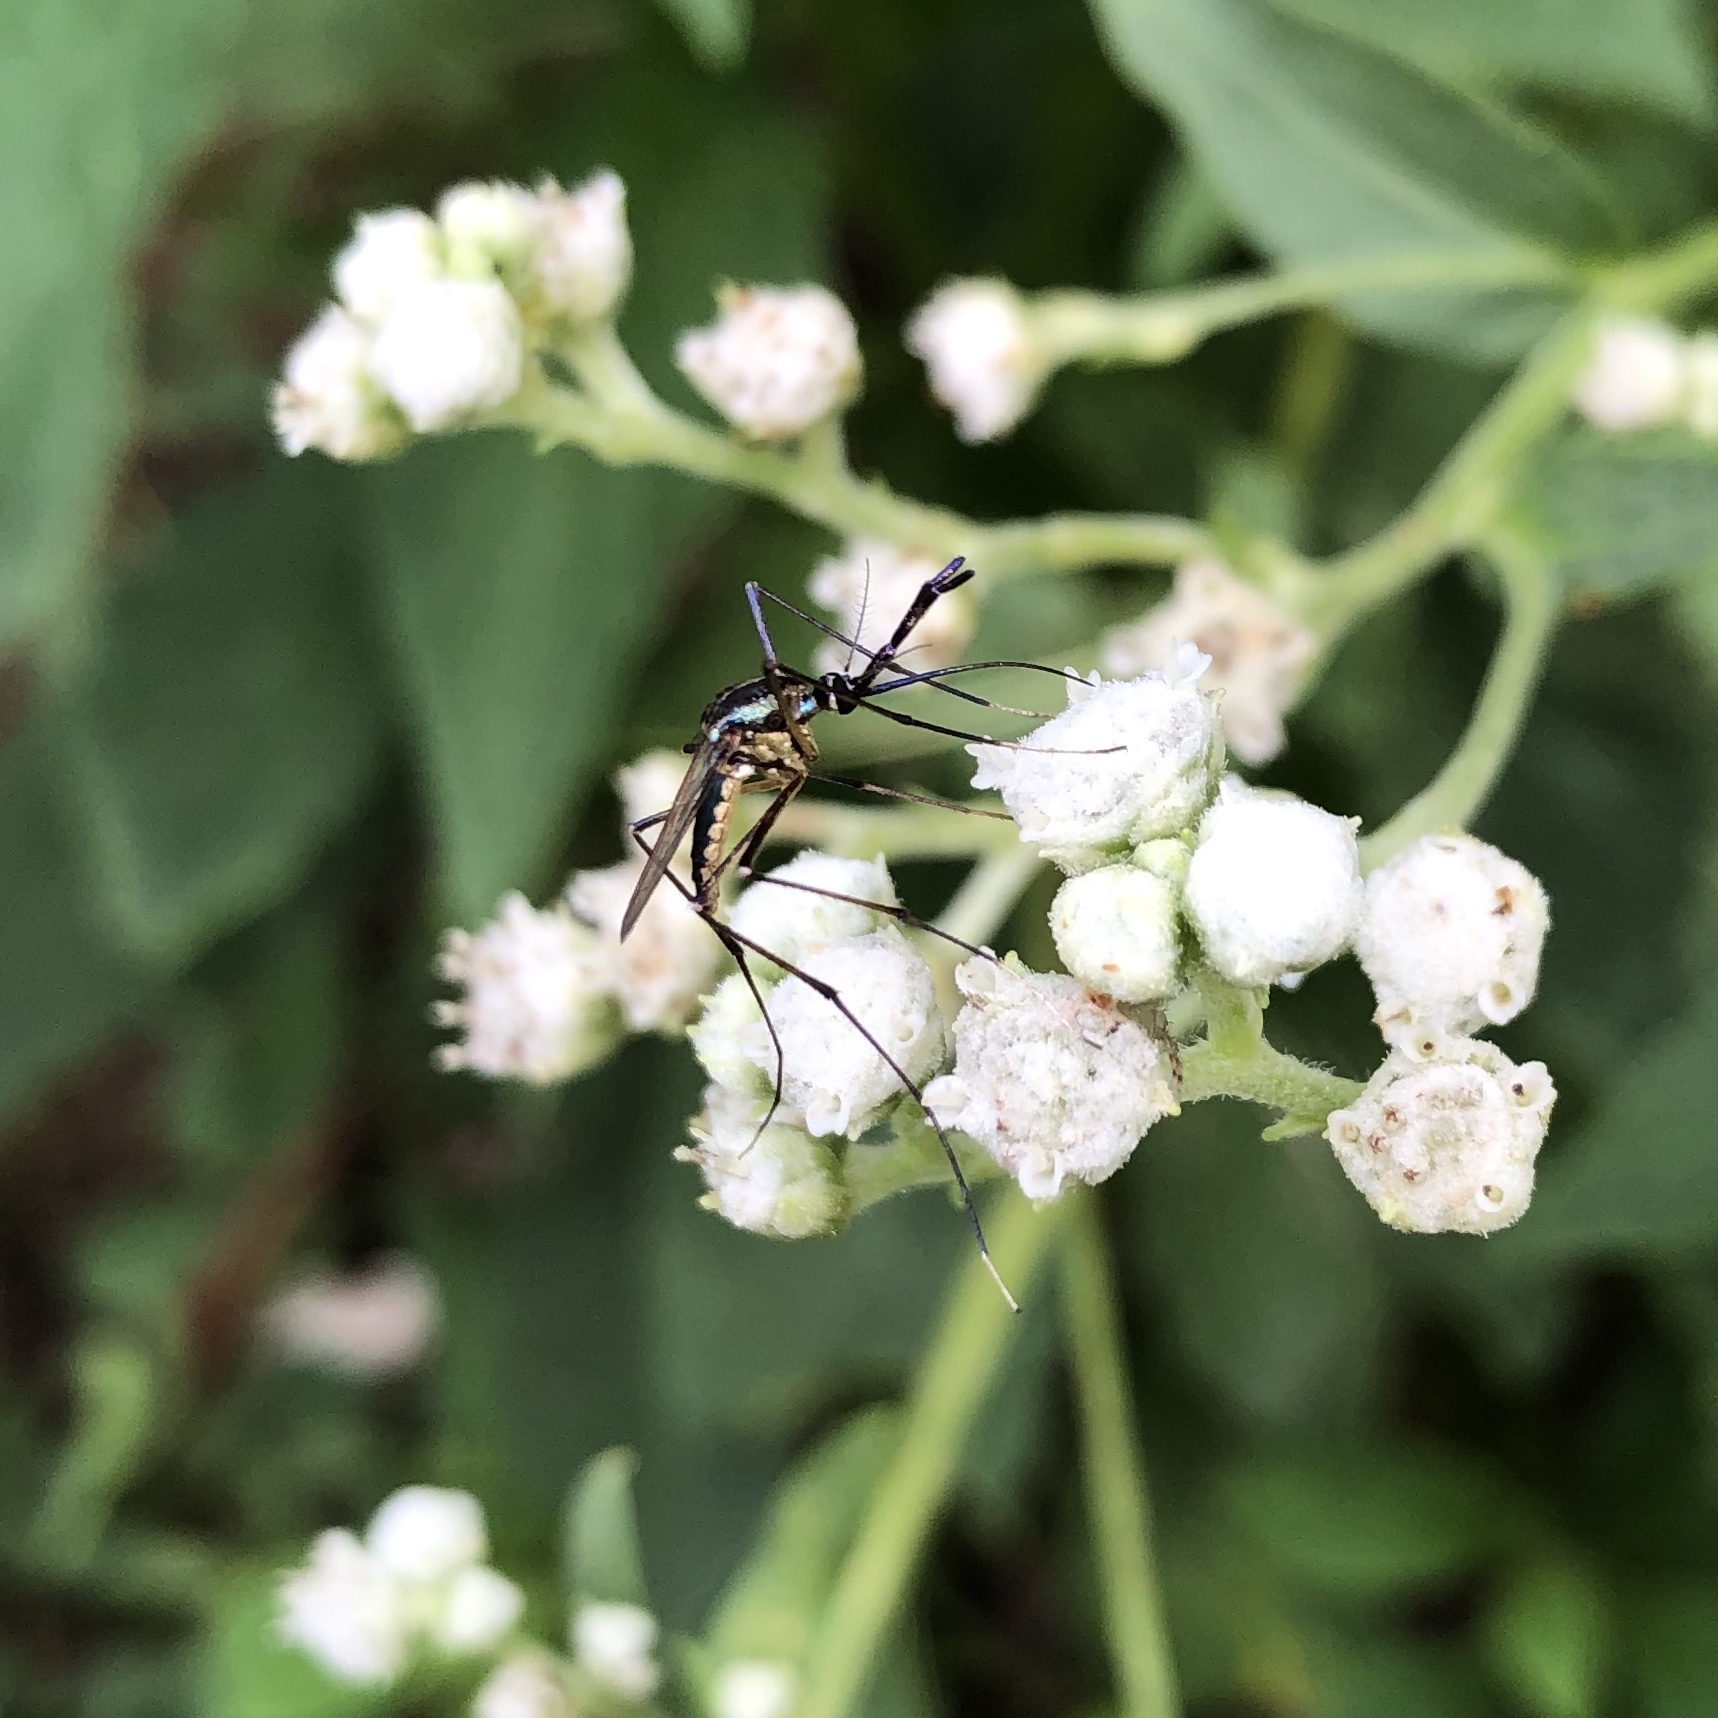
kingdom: Animalia
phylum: Arthropoda
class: Insecta
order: Diptera
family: Culicidae
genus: Toxorhynchites
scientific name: Toxorhynchites rutilus
